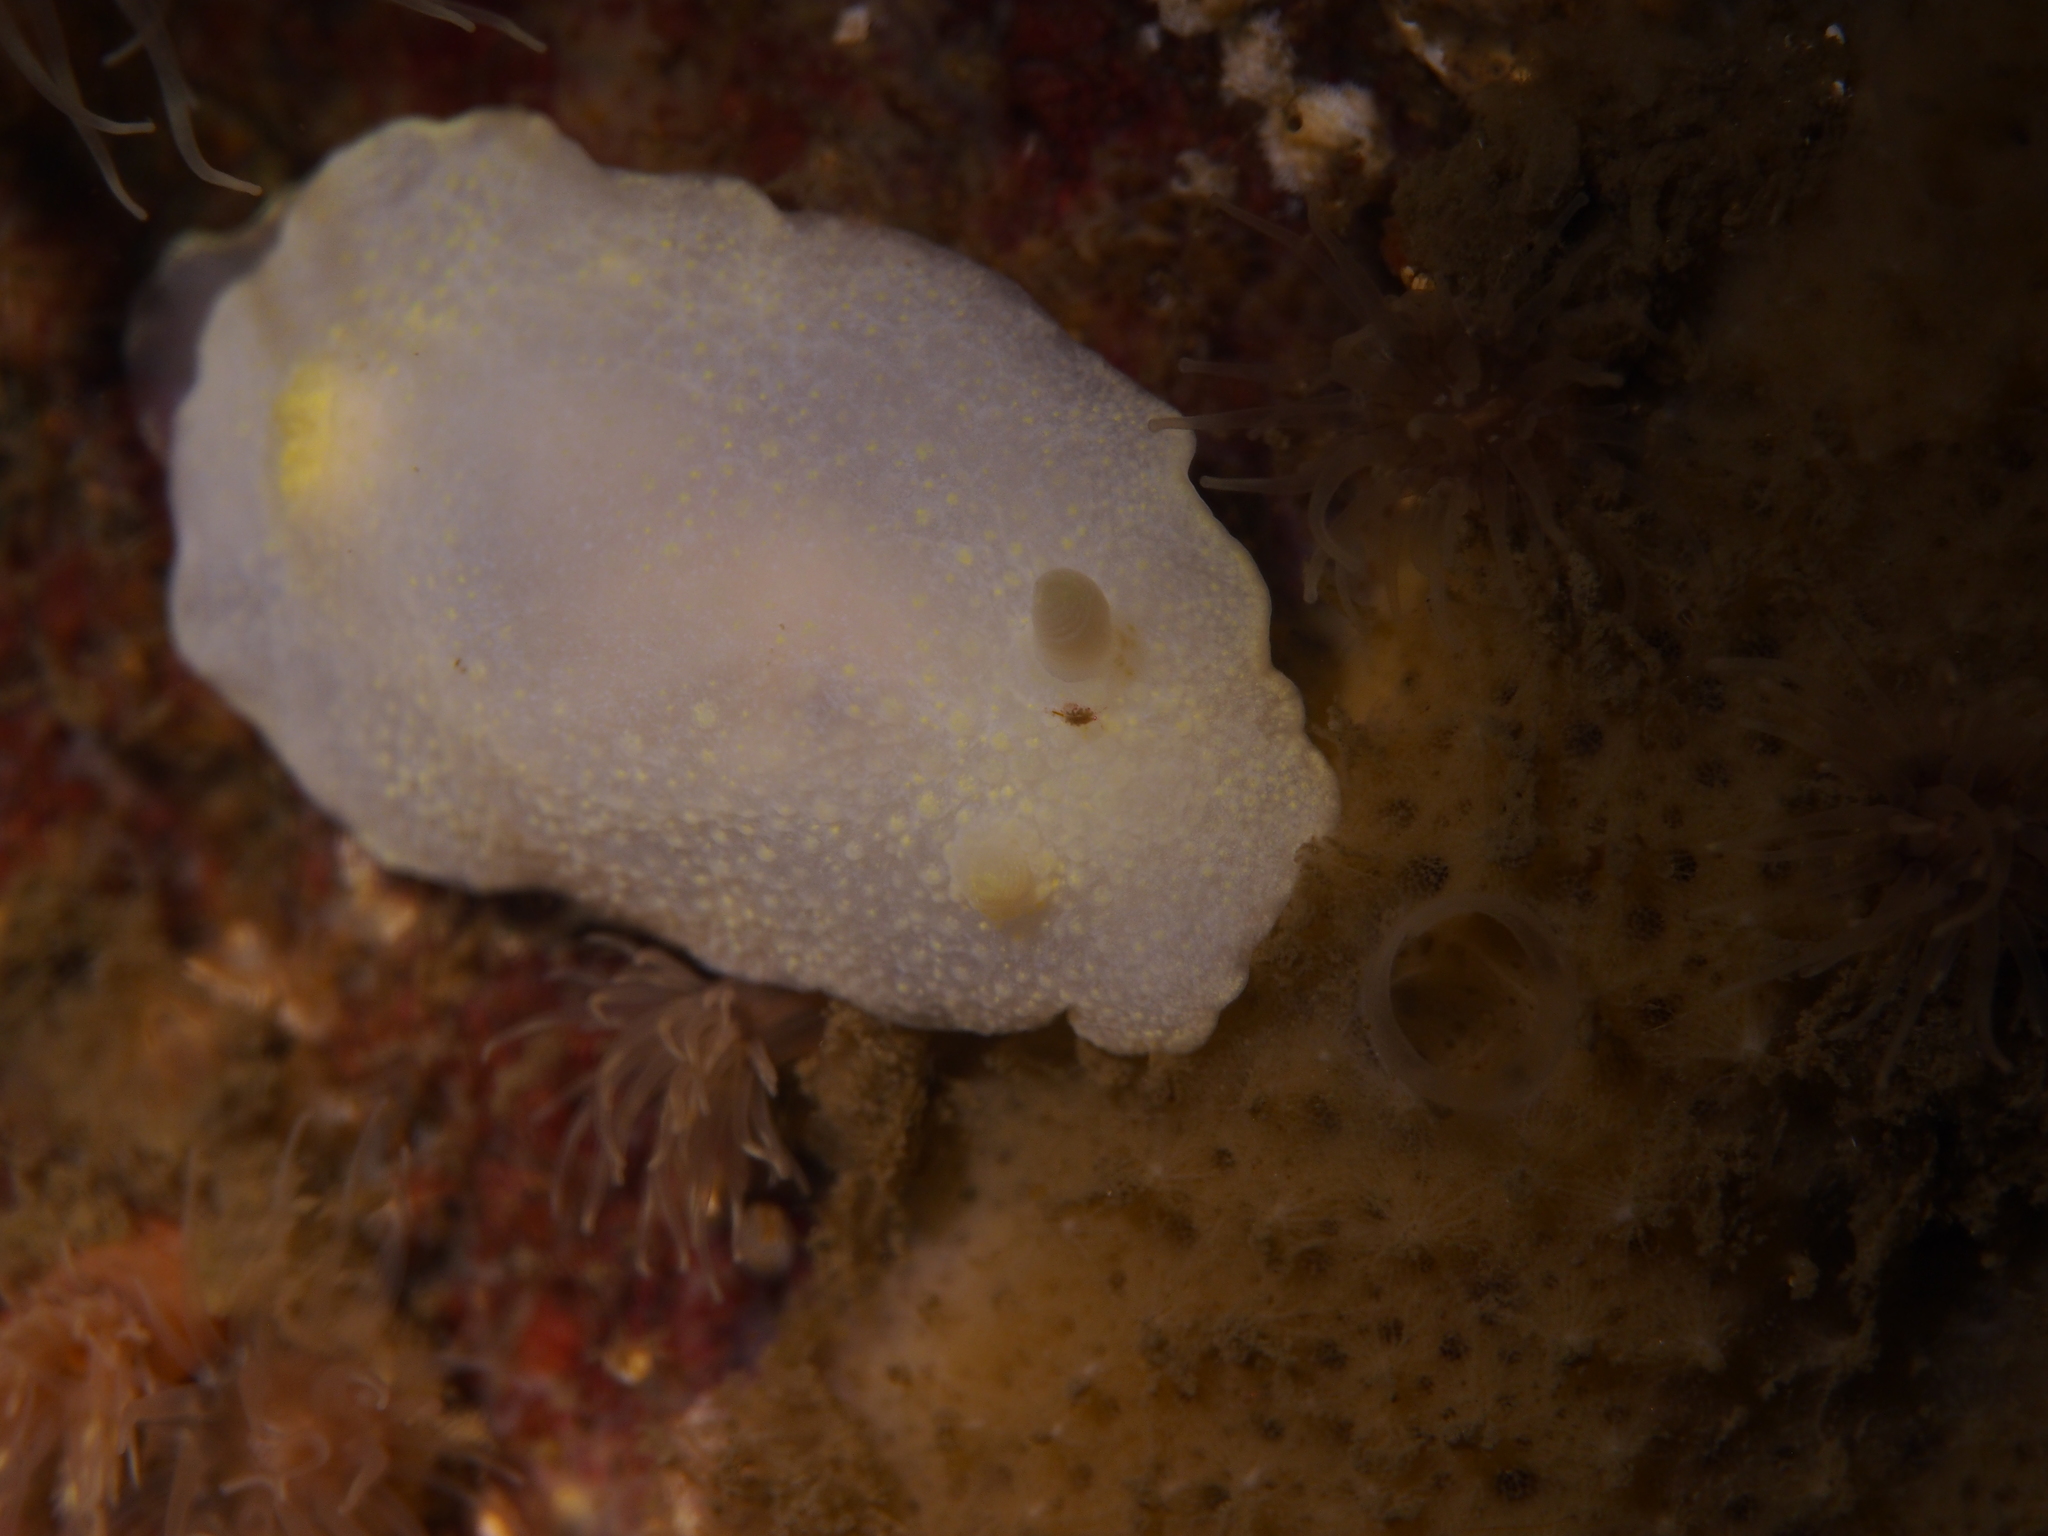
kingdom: Animalia
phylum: Mollusca
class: Gastropoda
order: Nudibranchia
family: Cadlinidae
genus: Cadlina
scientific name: Cadlina laevis
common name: White atlantic cadlina
